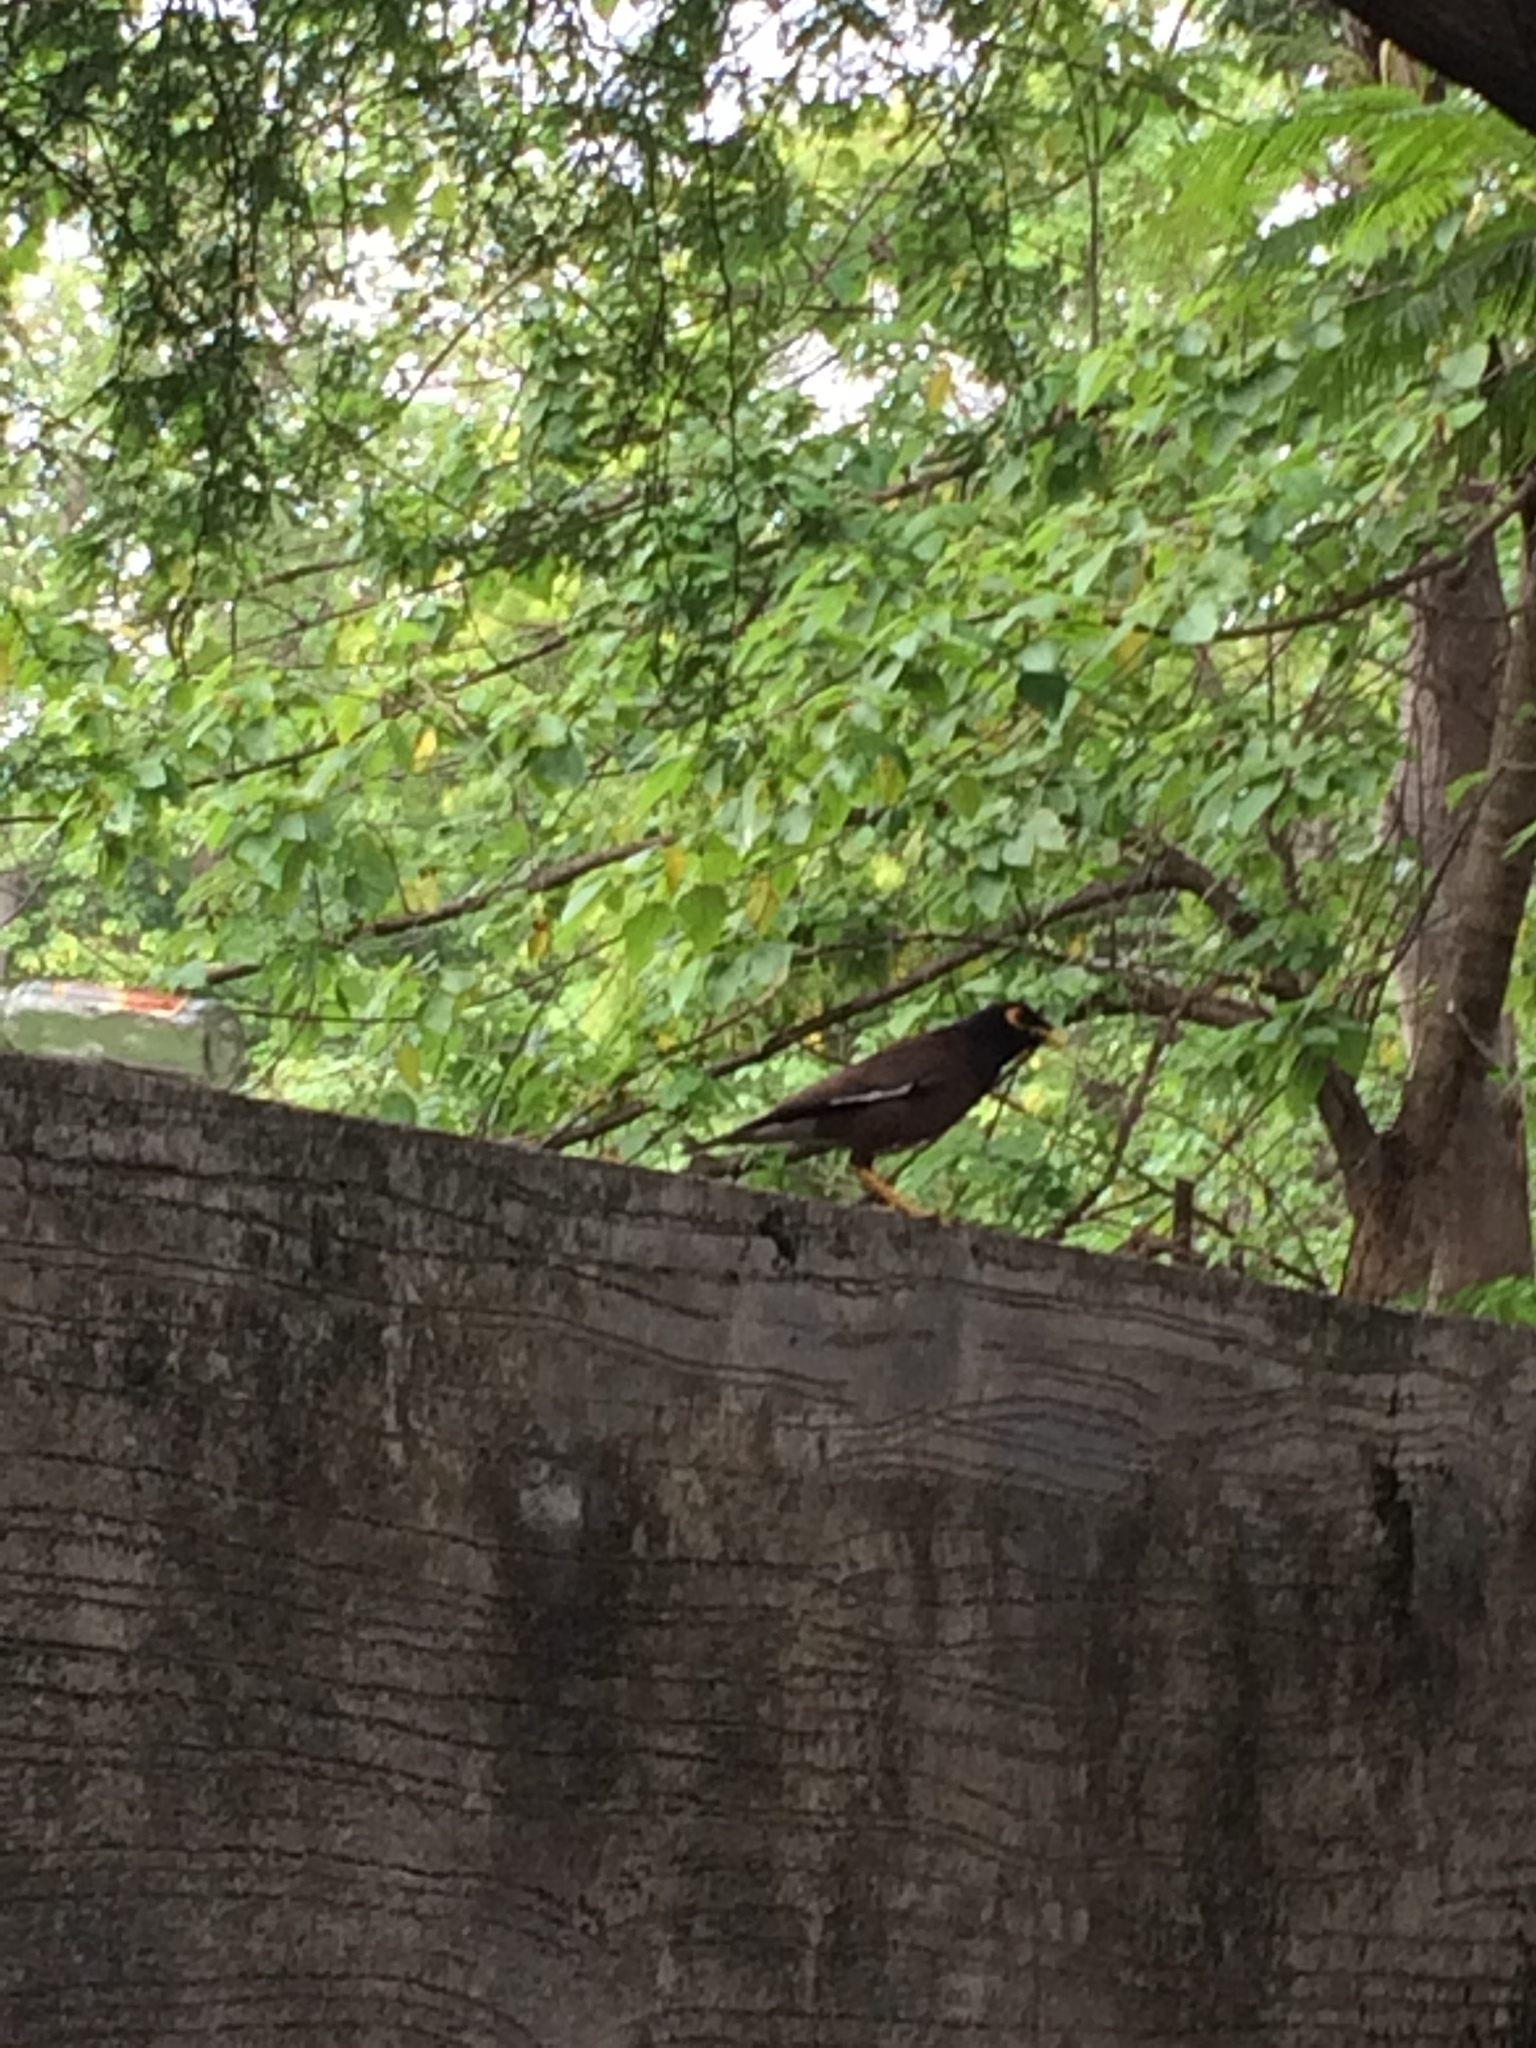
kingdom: Animalia
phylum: Chordata
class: Aves
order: Passeriformes
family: Sturnidae
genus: Acridotheres
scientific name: Acridotheres tristis
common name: Common myna
